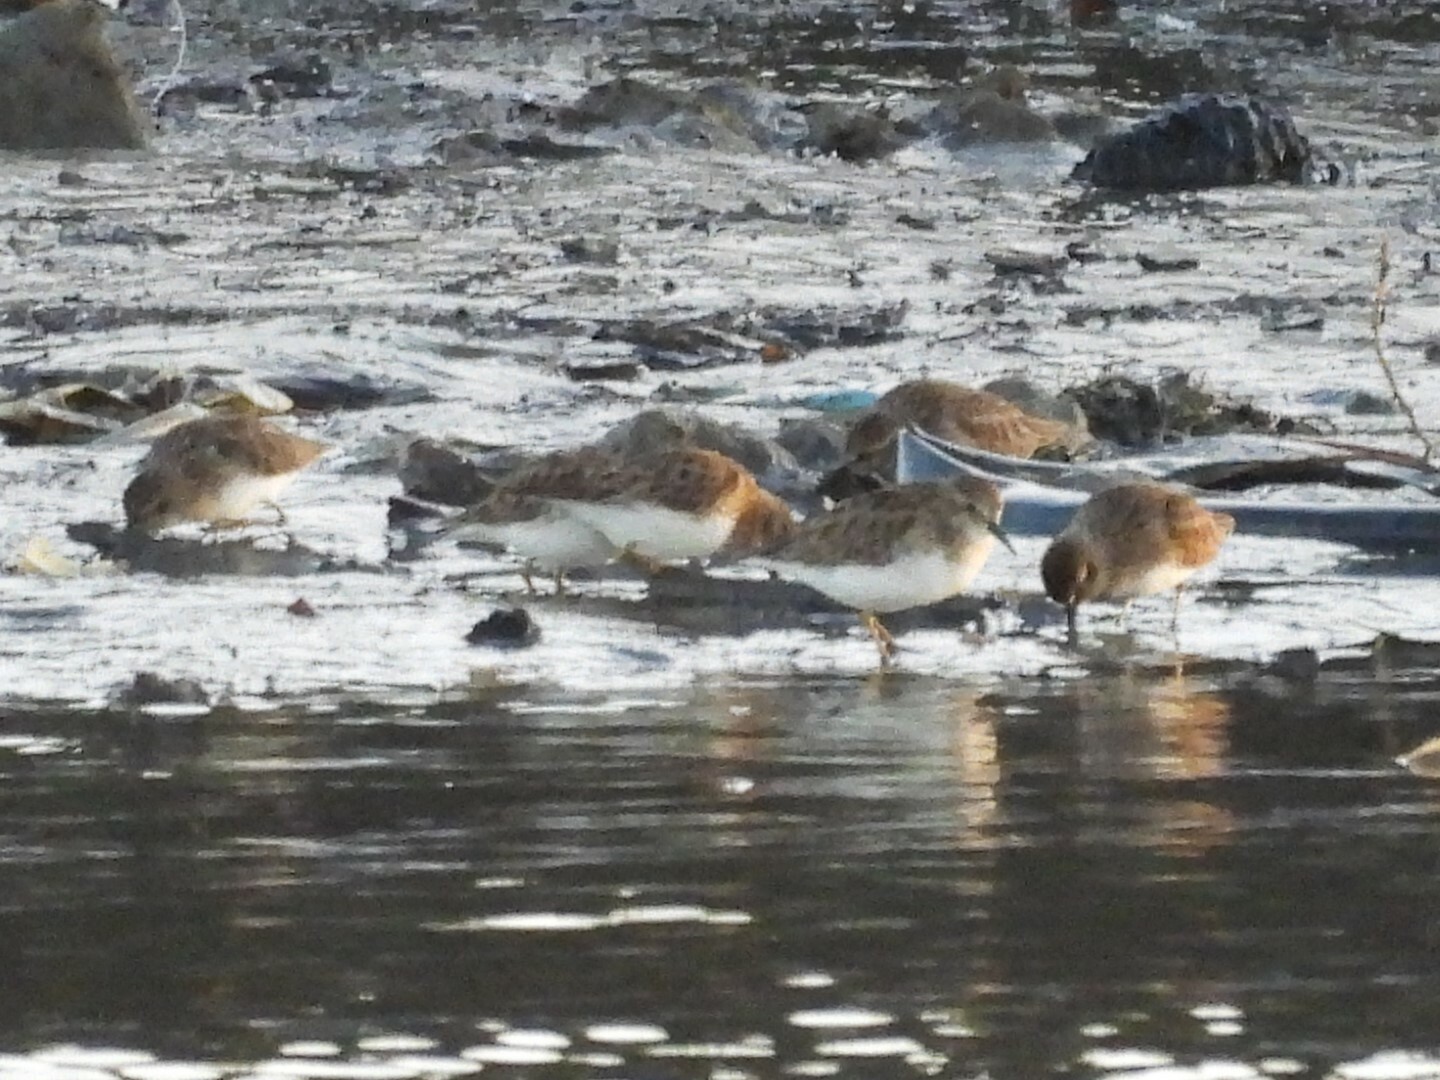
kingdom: Animalia
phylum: Chordata
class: Aves
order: Charadriiformes
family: Scolopacidae
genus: Calidris
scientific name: Calidris minutilla
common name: Least sandpiper
